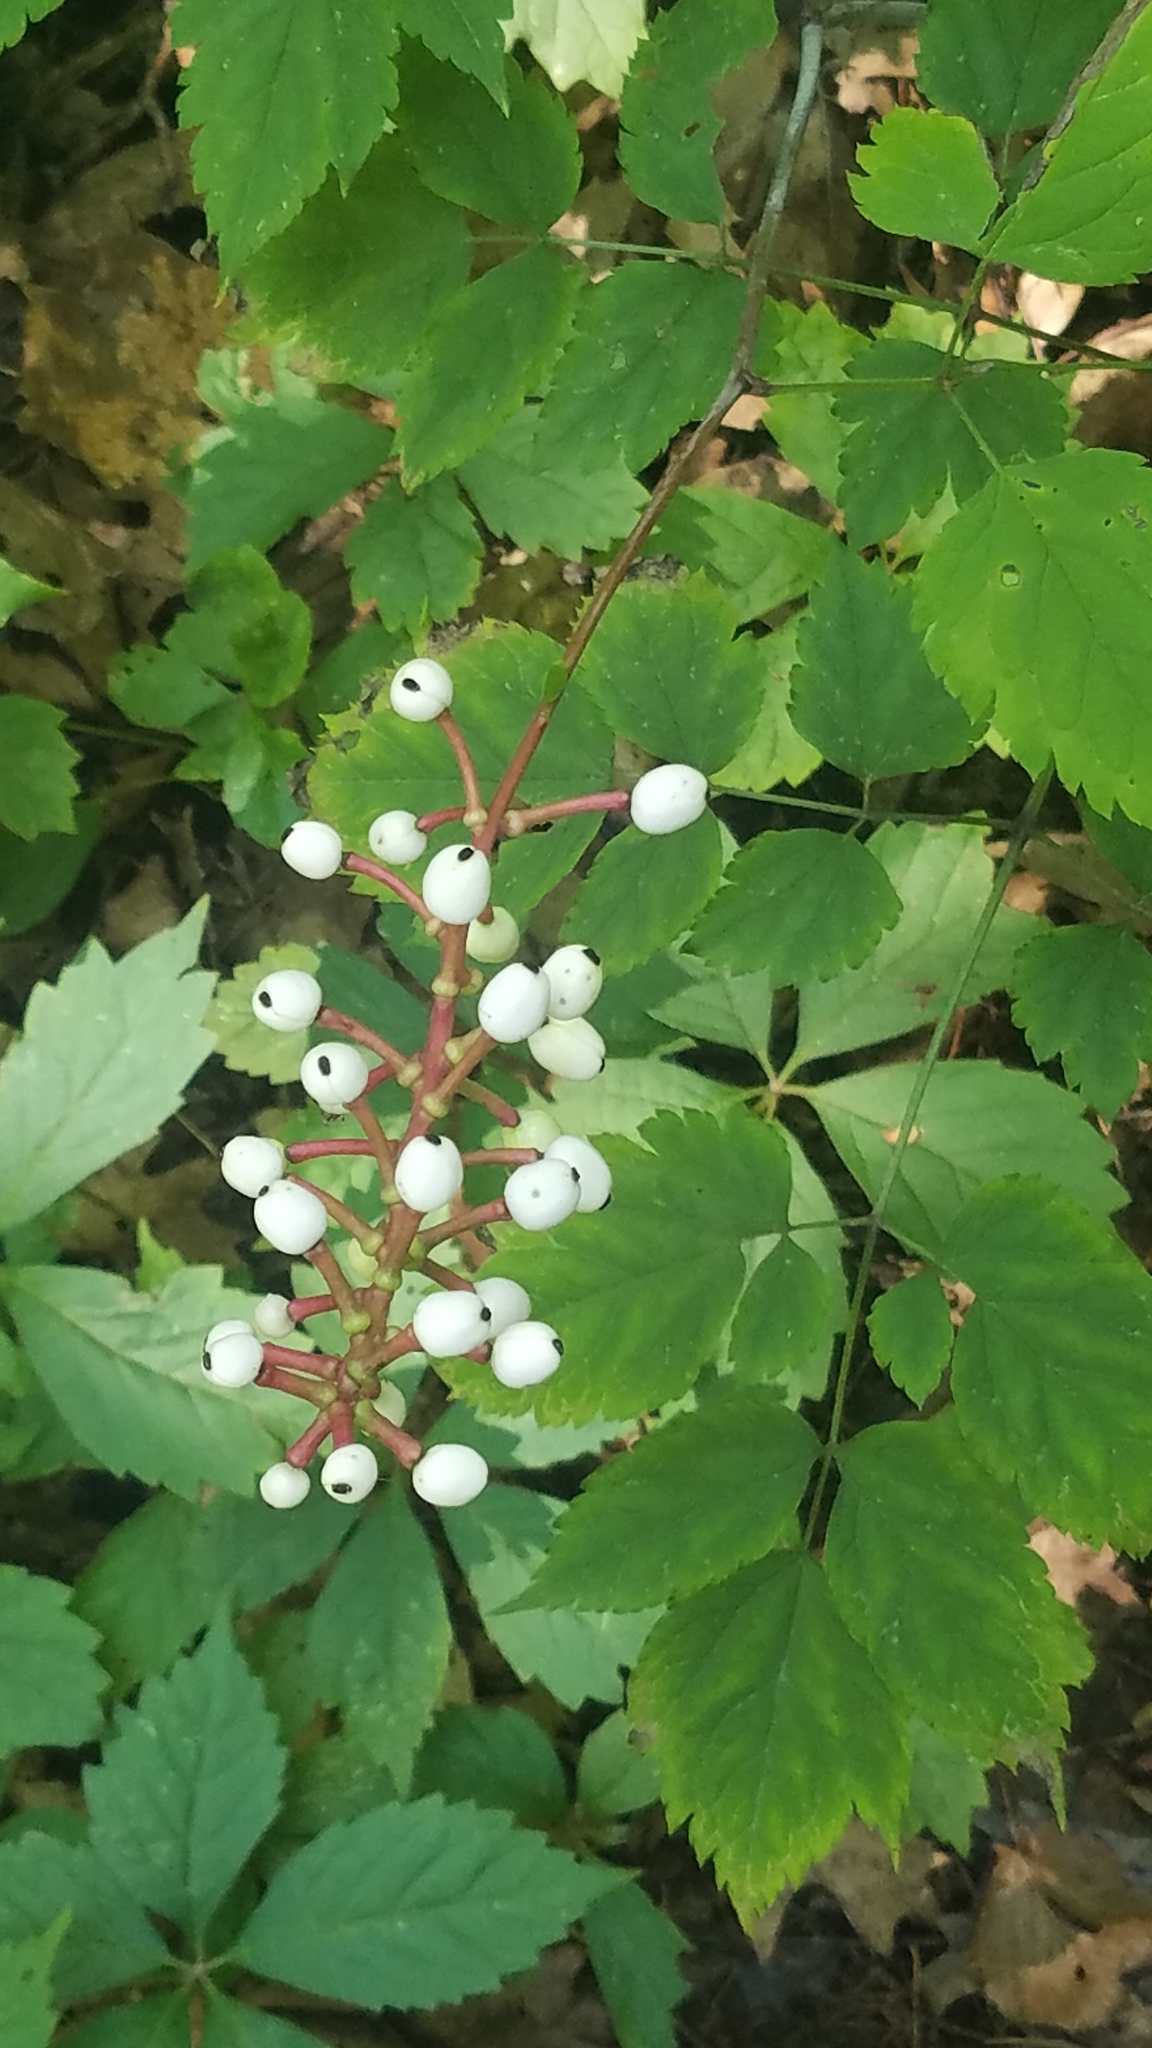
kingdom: Plantae
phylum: Tracheophyta
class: Magnoliopsida
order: Vitales
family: Vitaceae
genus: Parthenocissus
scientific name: Parthenocissus quinquefolia
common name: Virginia-creeper
